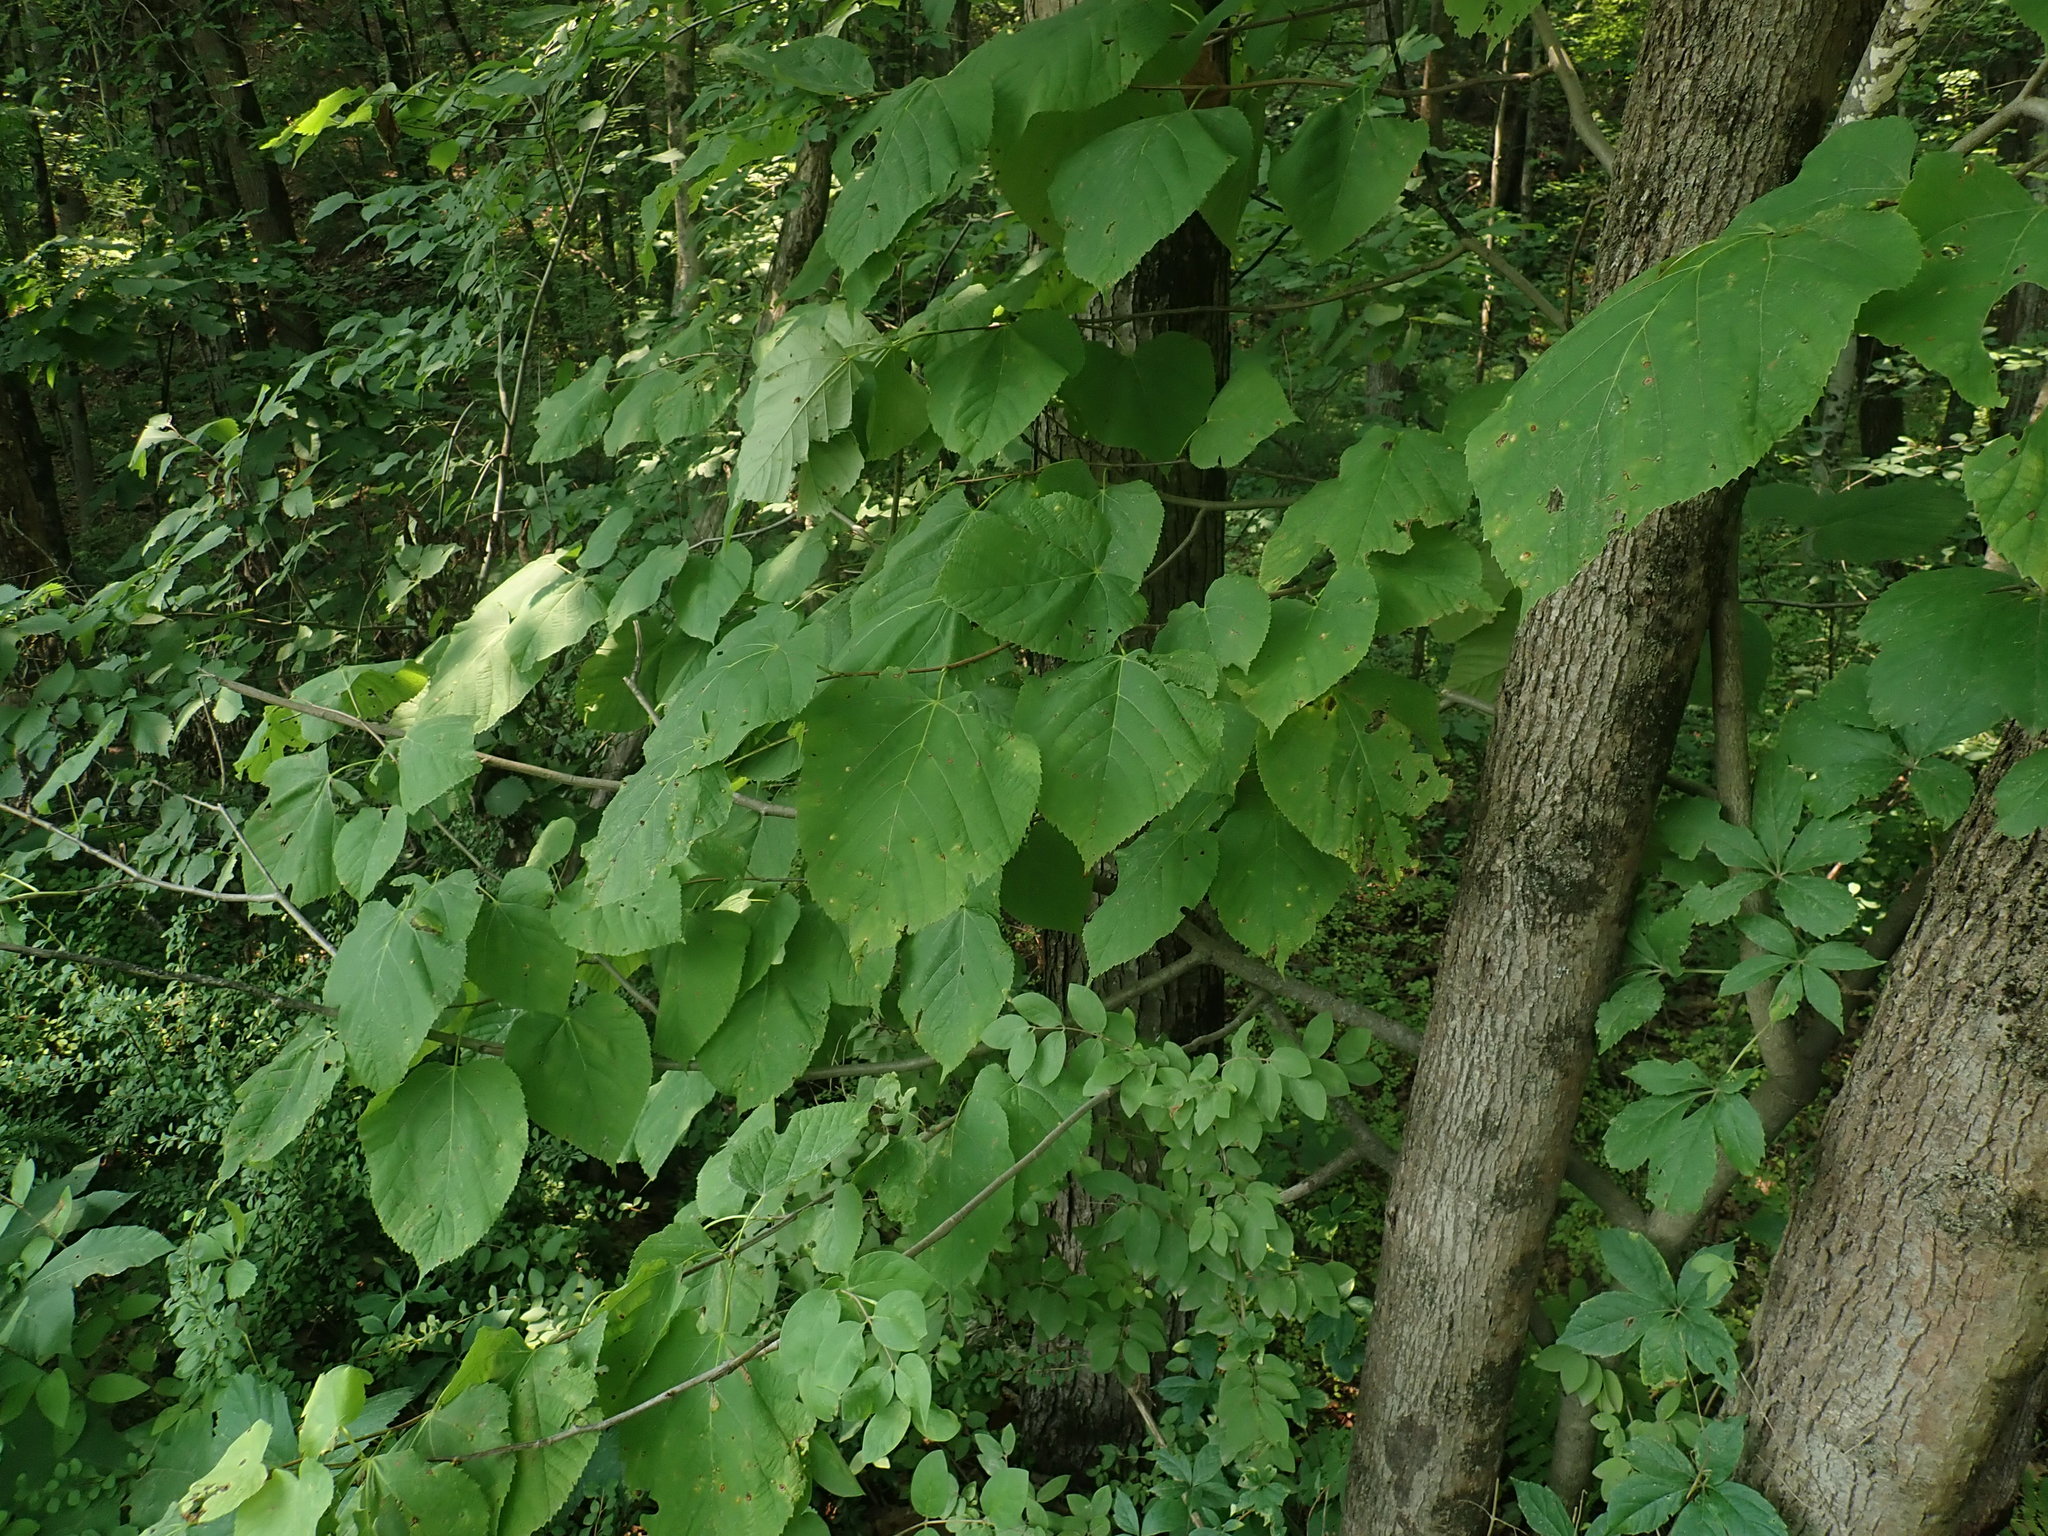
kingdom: Plantae
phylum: Tracheophyta
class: Magnoliopsida
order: Malvales
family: Malvaceae
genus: Tilia
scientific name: Tilia americana
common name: Basswood
